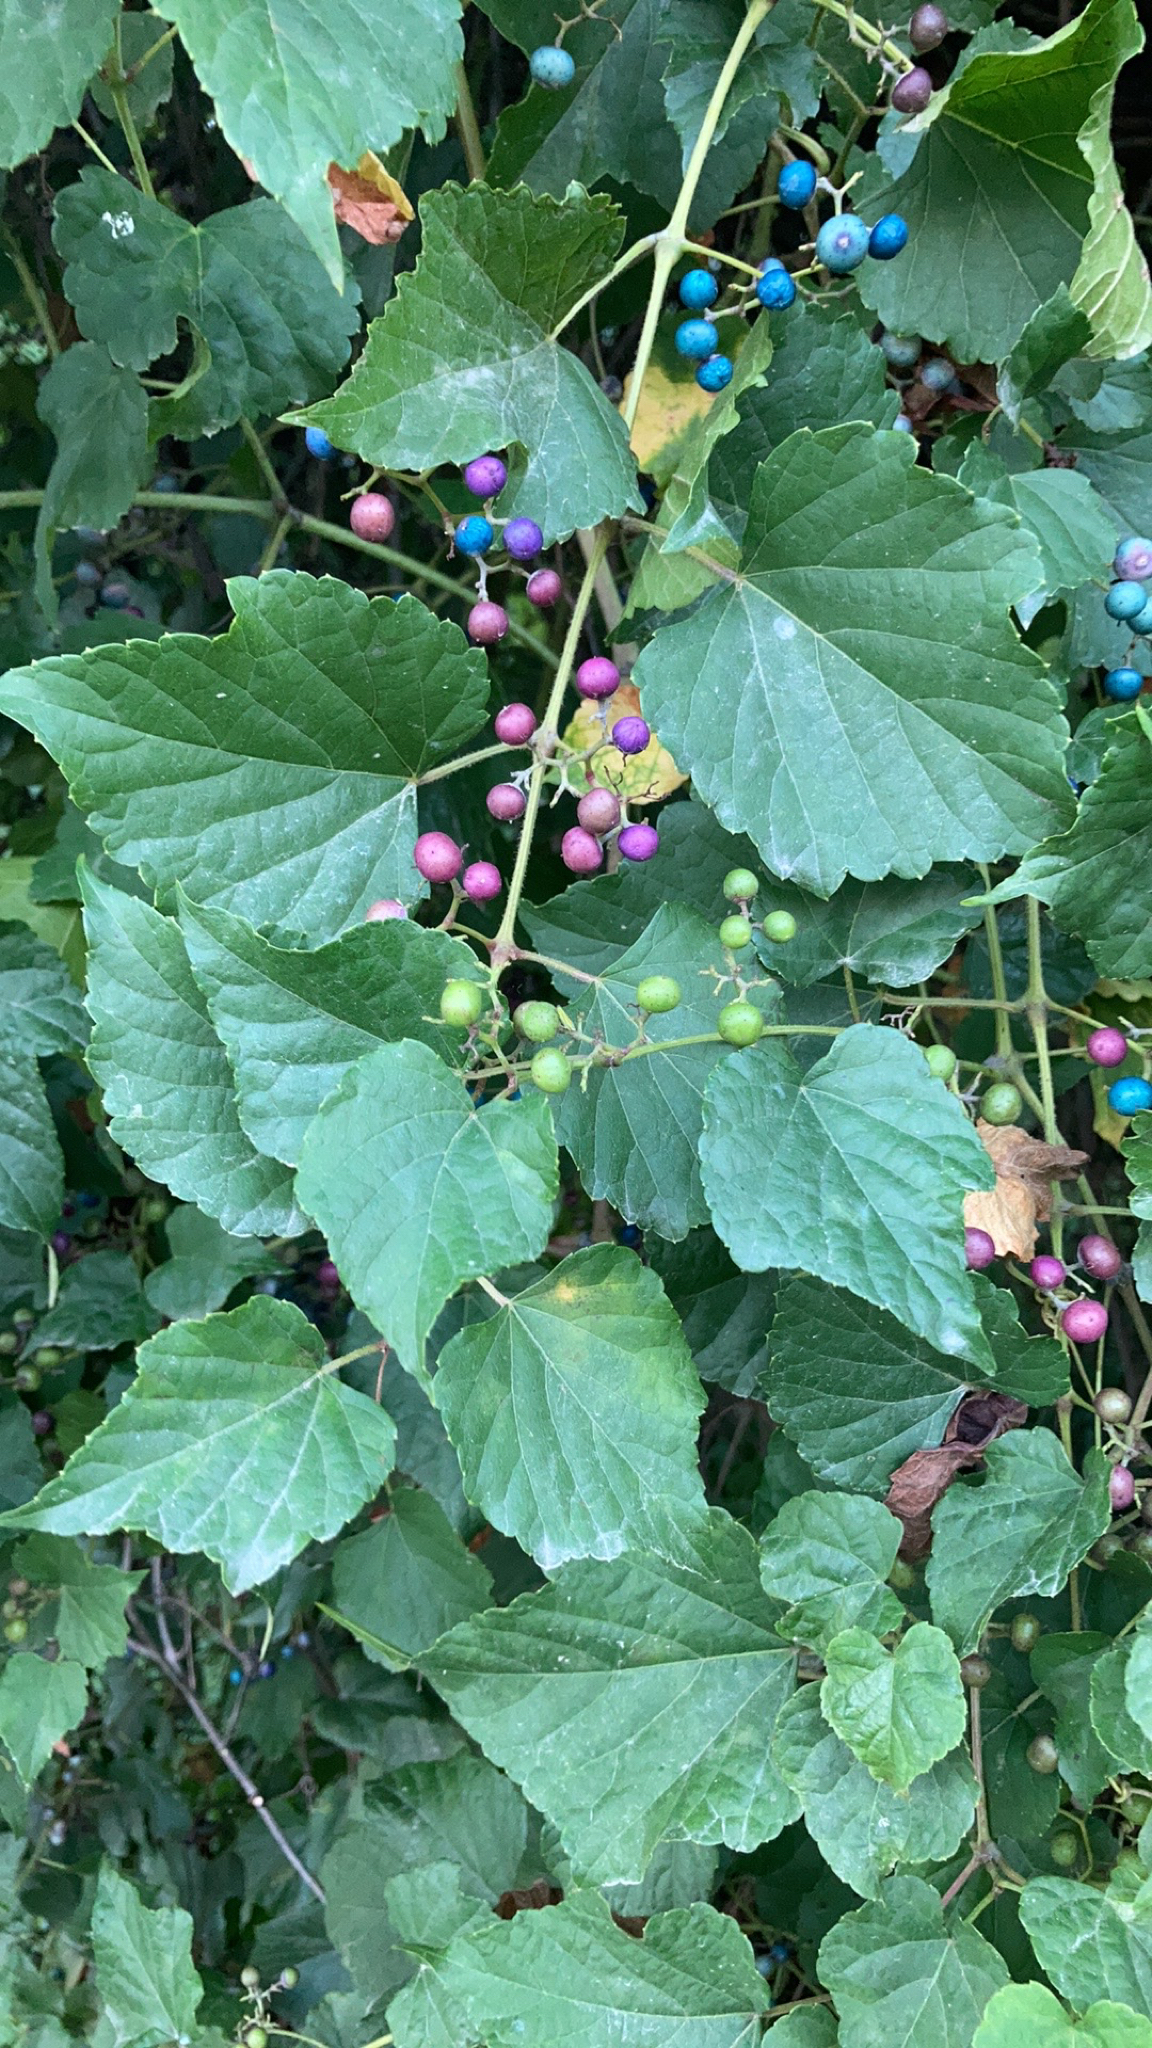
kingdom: Plantae
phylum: Tracheophyta
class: Magnoliopsida
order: Vitales
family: Vitaceae
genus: Ampelopsis
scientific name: Ampelopsis glandulosa
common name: Amur peppervine
